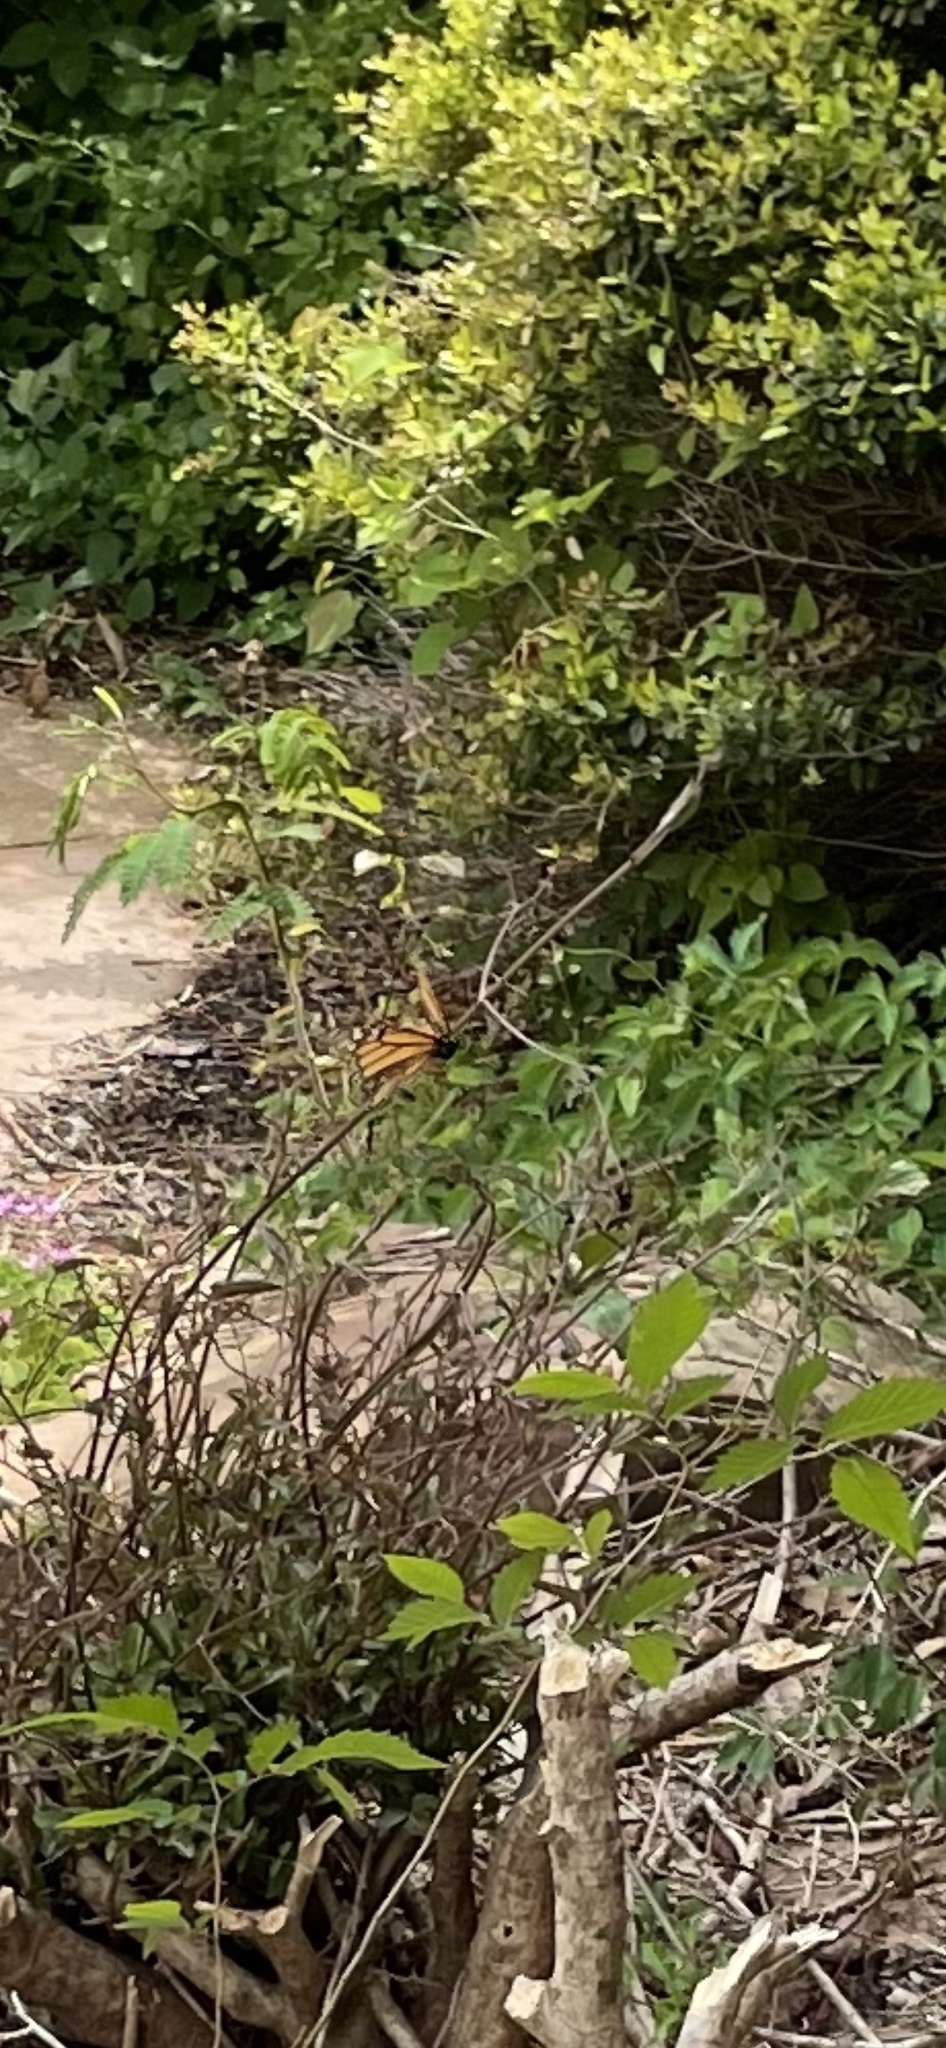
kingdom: Animalia
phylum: Arthropoda
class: Insecta
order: Lepidoptera
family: Nymphalidae
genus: Danaus
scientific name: Danaus plexippus
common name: Monarch
